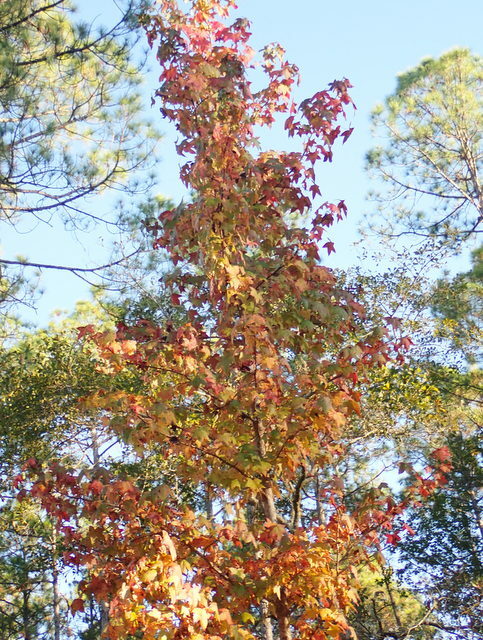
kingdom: Plantae
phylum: Tracheophyta
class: Magnoliopsida
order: Saxifragales
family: Altingiaceae
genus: Liquidambar
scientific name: Liquidambar styraciflua
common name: Sweet gum
